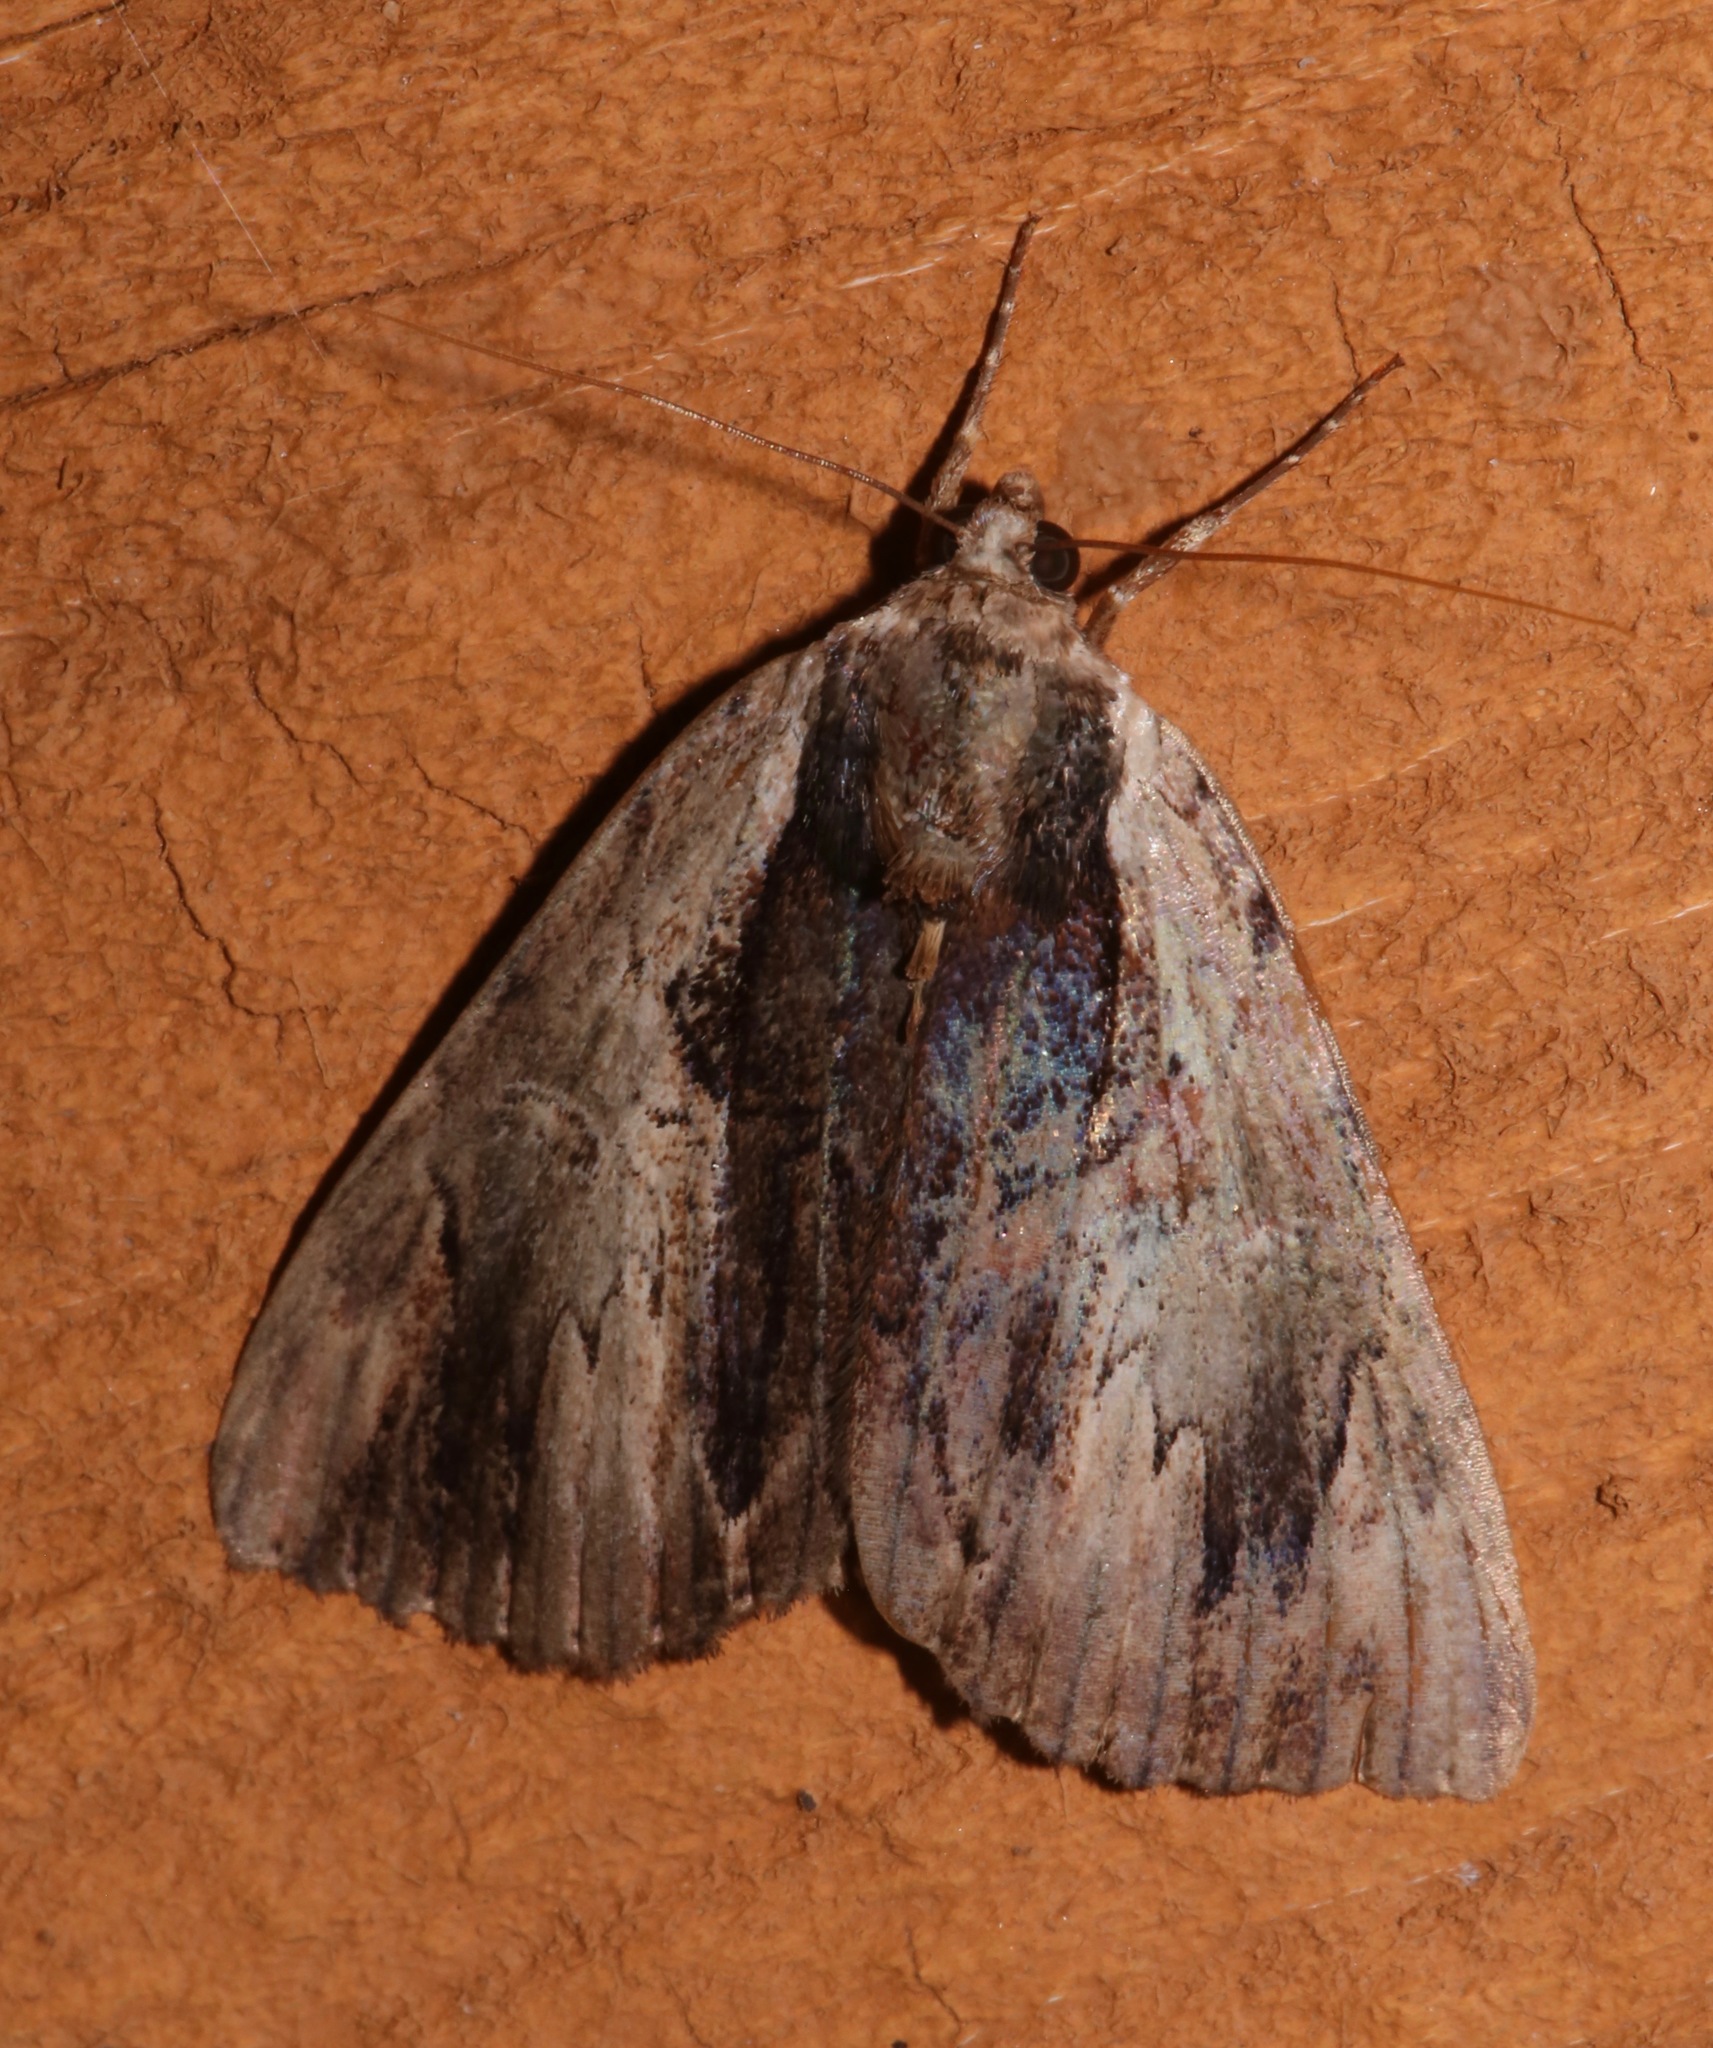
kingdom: Animalia
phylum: Arthropoda
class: Insecta
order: Lepidoptera
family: Erebidae
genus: Catocala
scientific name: Catocala ultronia
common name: Ultronia underwing
